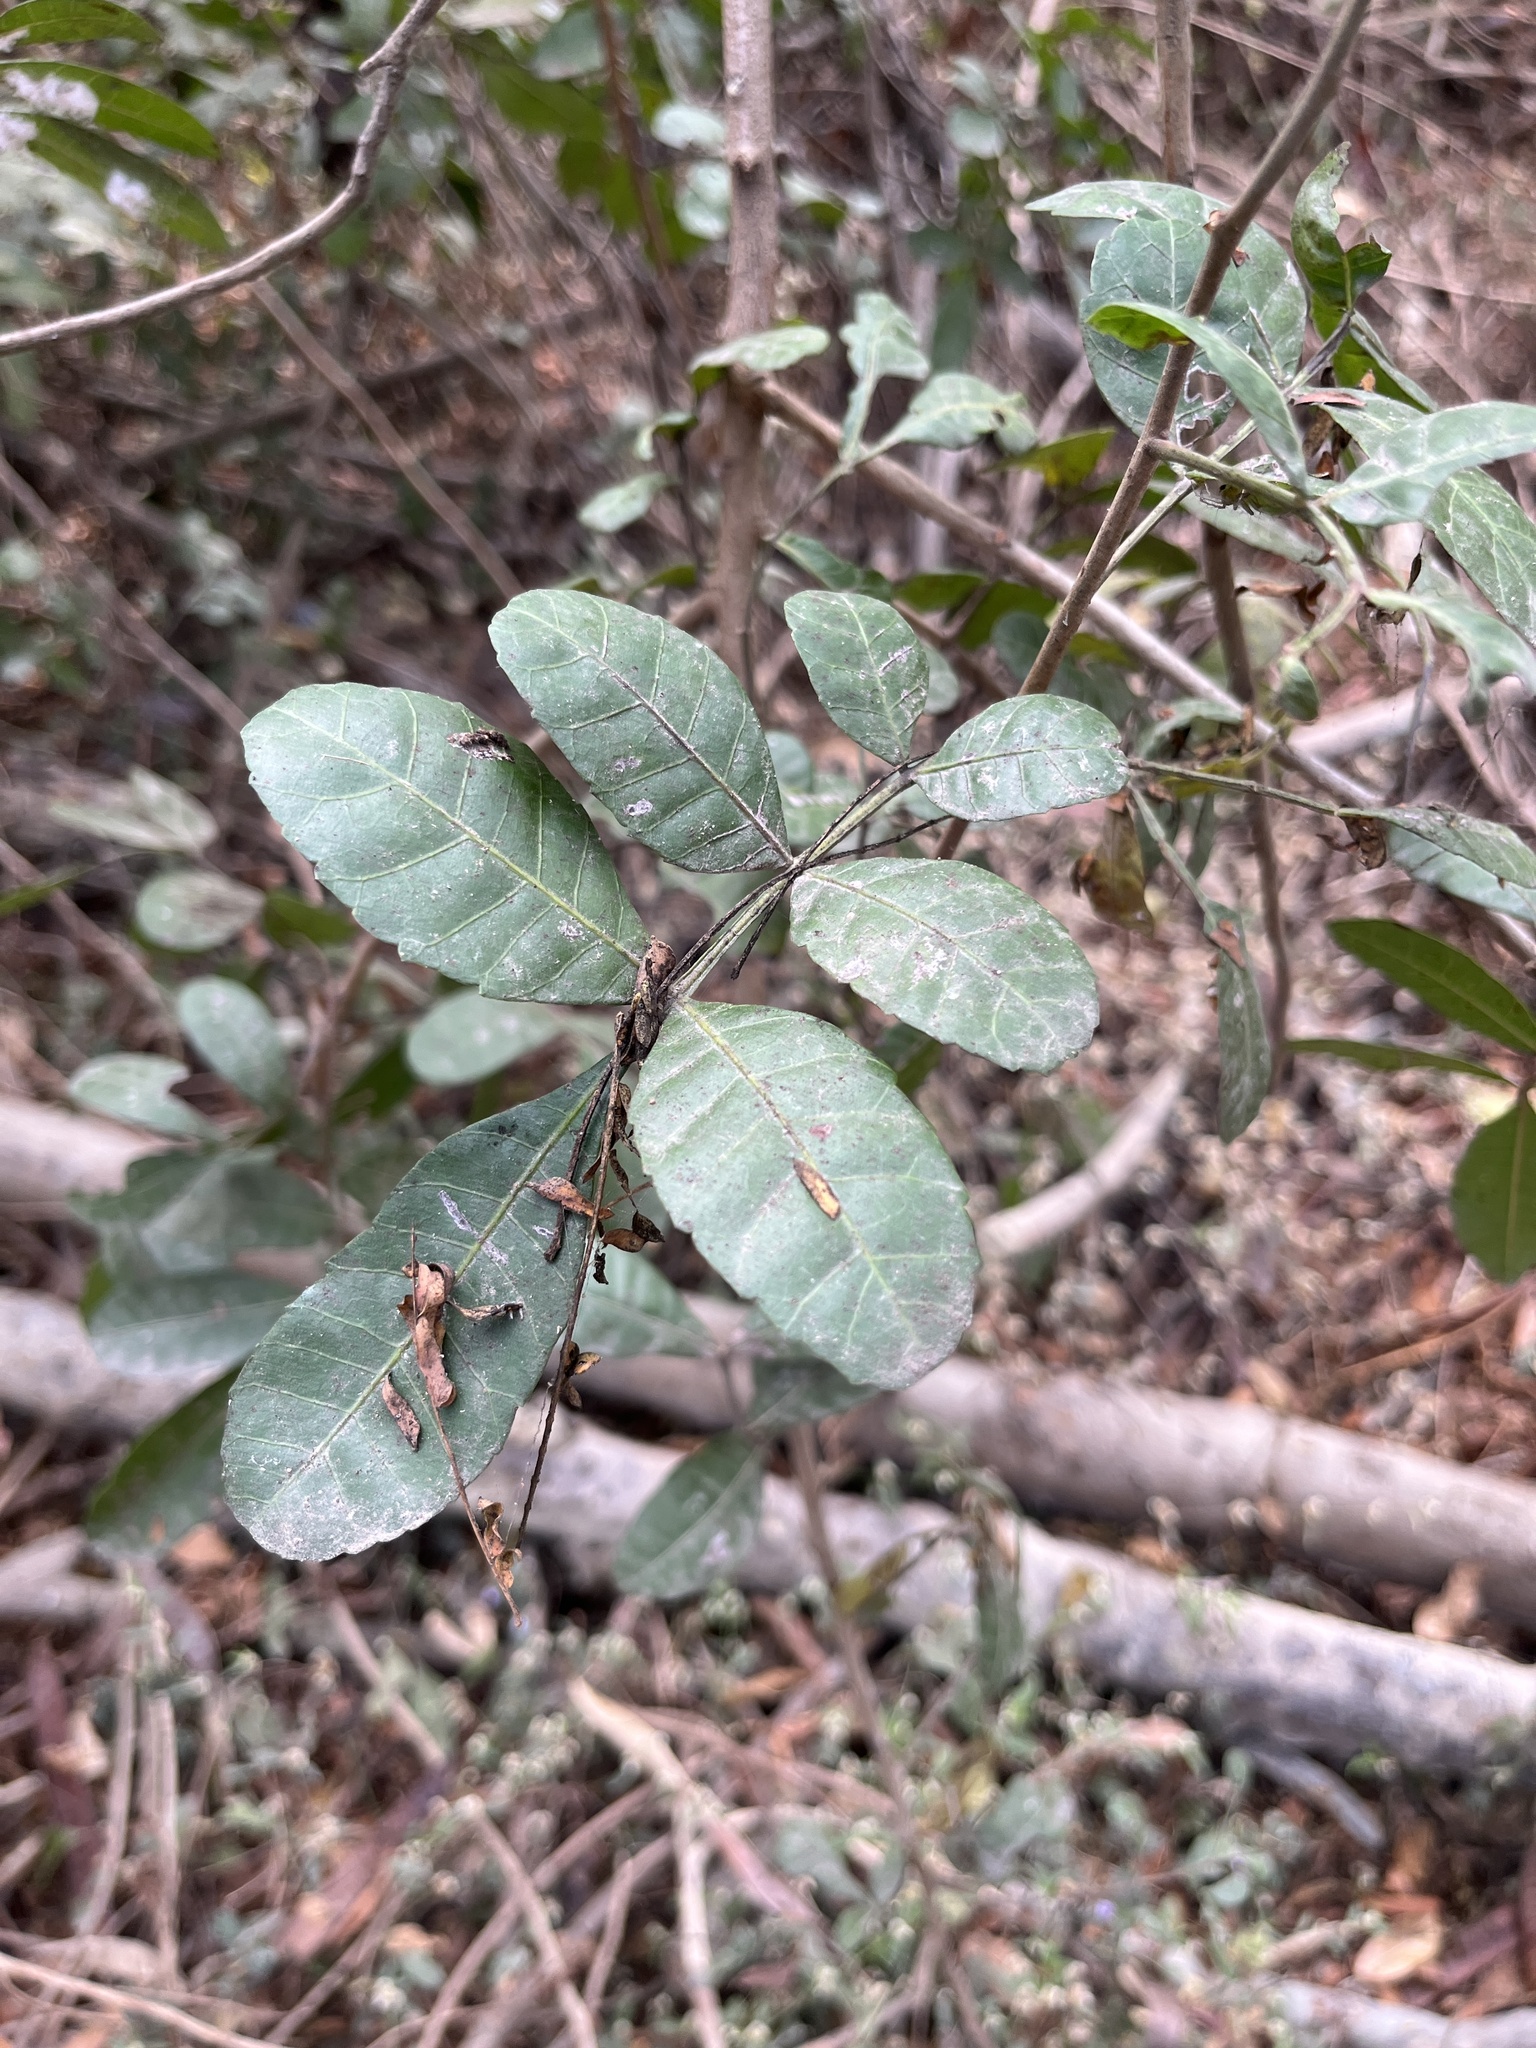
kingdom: Plantae
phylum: Tracheophyta
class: Magnoliopsida
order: Sapindales
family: Anacardiaceae
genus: Schinus
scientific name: Schinus terebinthifolia
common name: Brazilian peppertree
